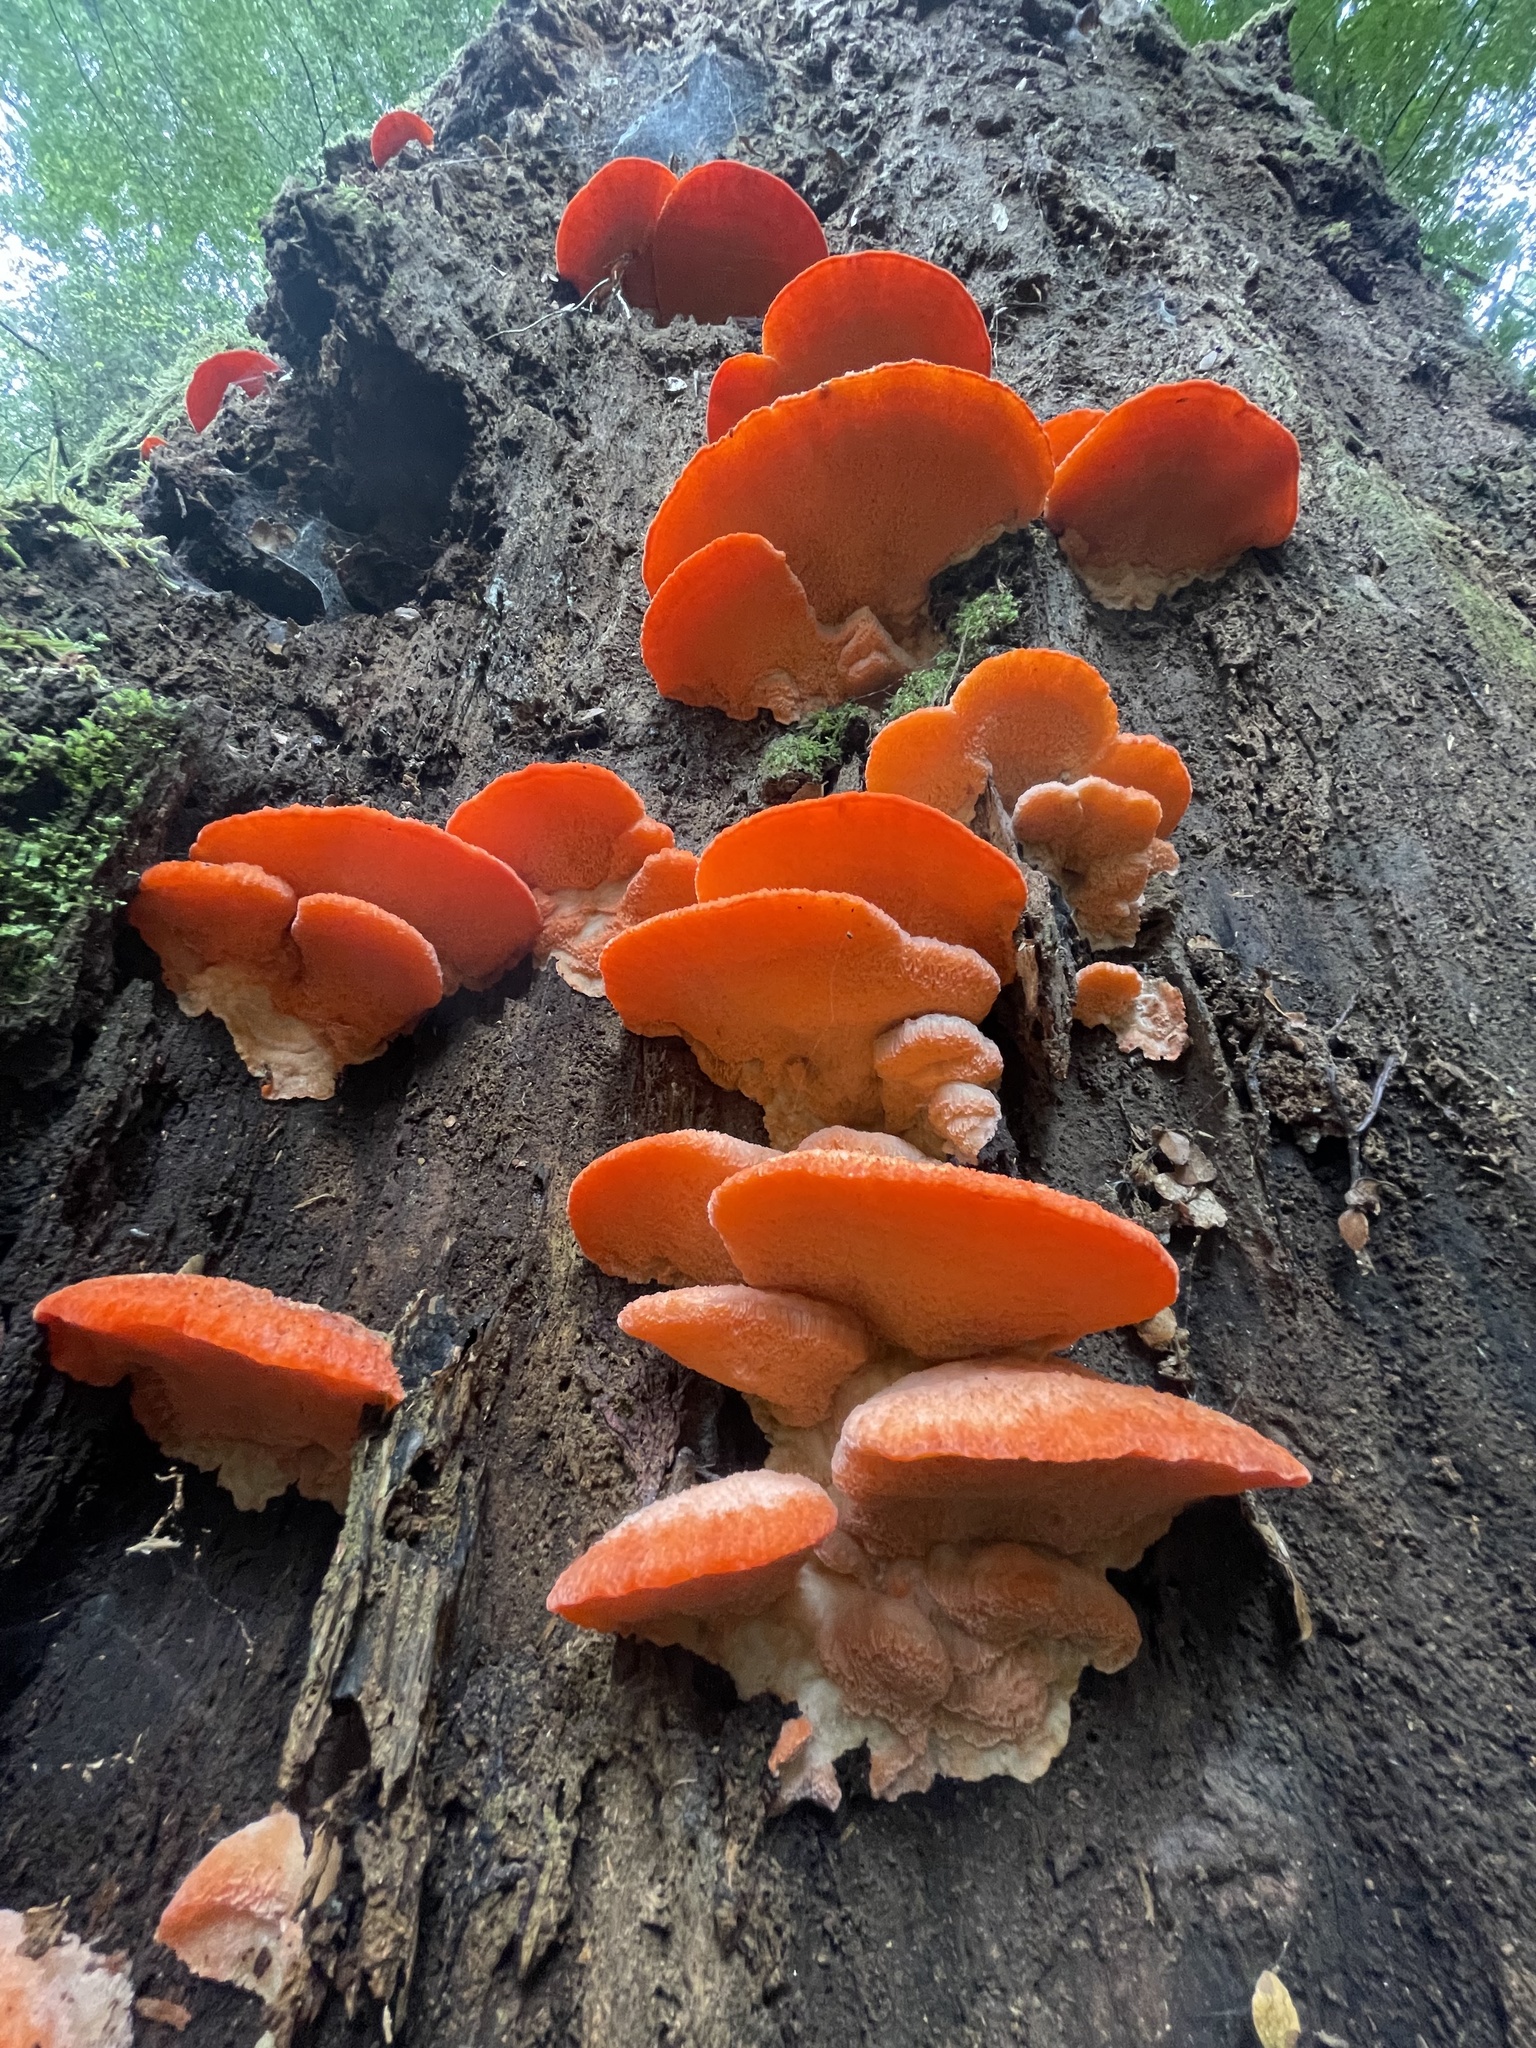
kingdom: Fungi
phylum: Basidiomycota
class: Agaricomycetes
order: Polyporales
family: Incrustoporiaceae
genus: Tyromyces
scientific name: Tyromyces pulcherrimus
